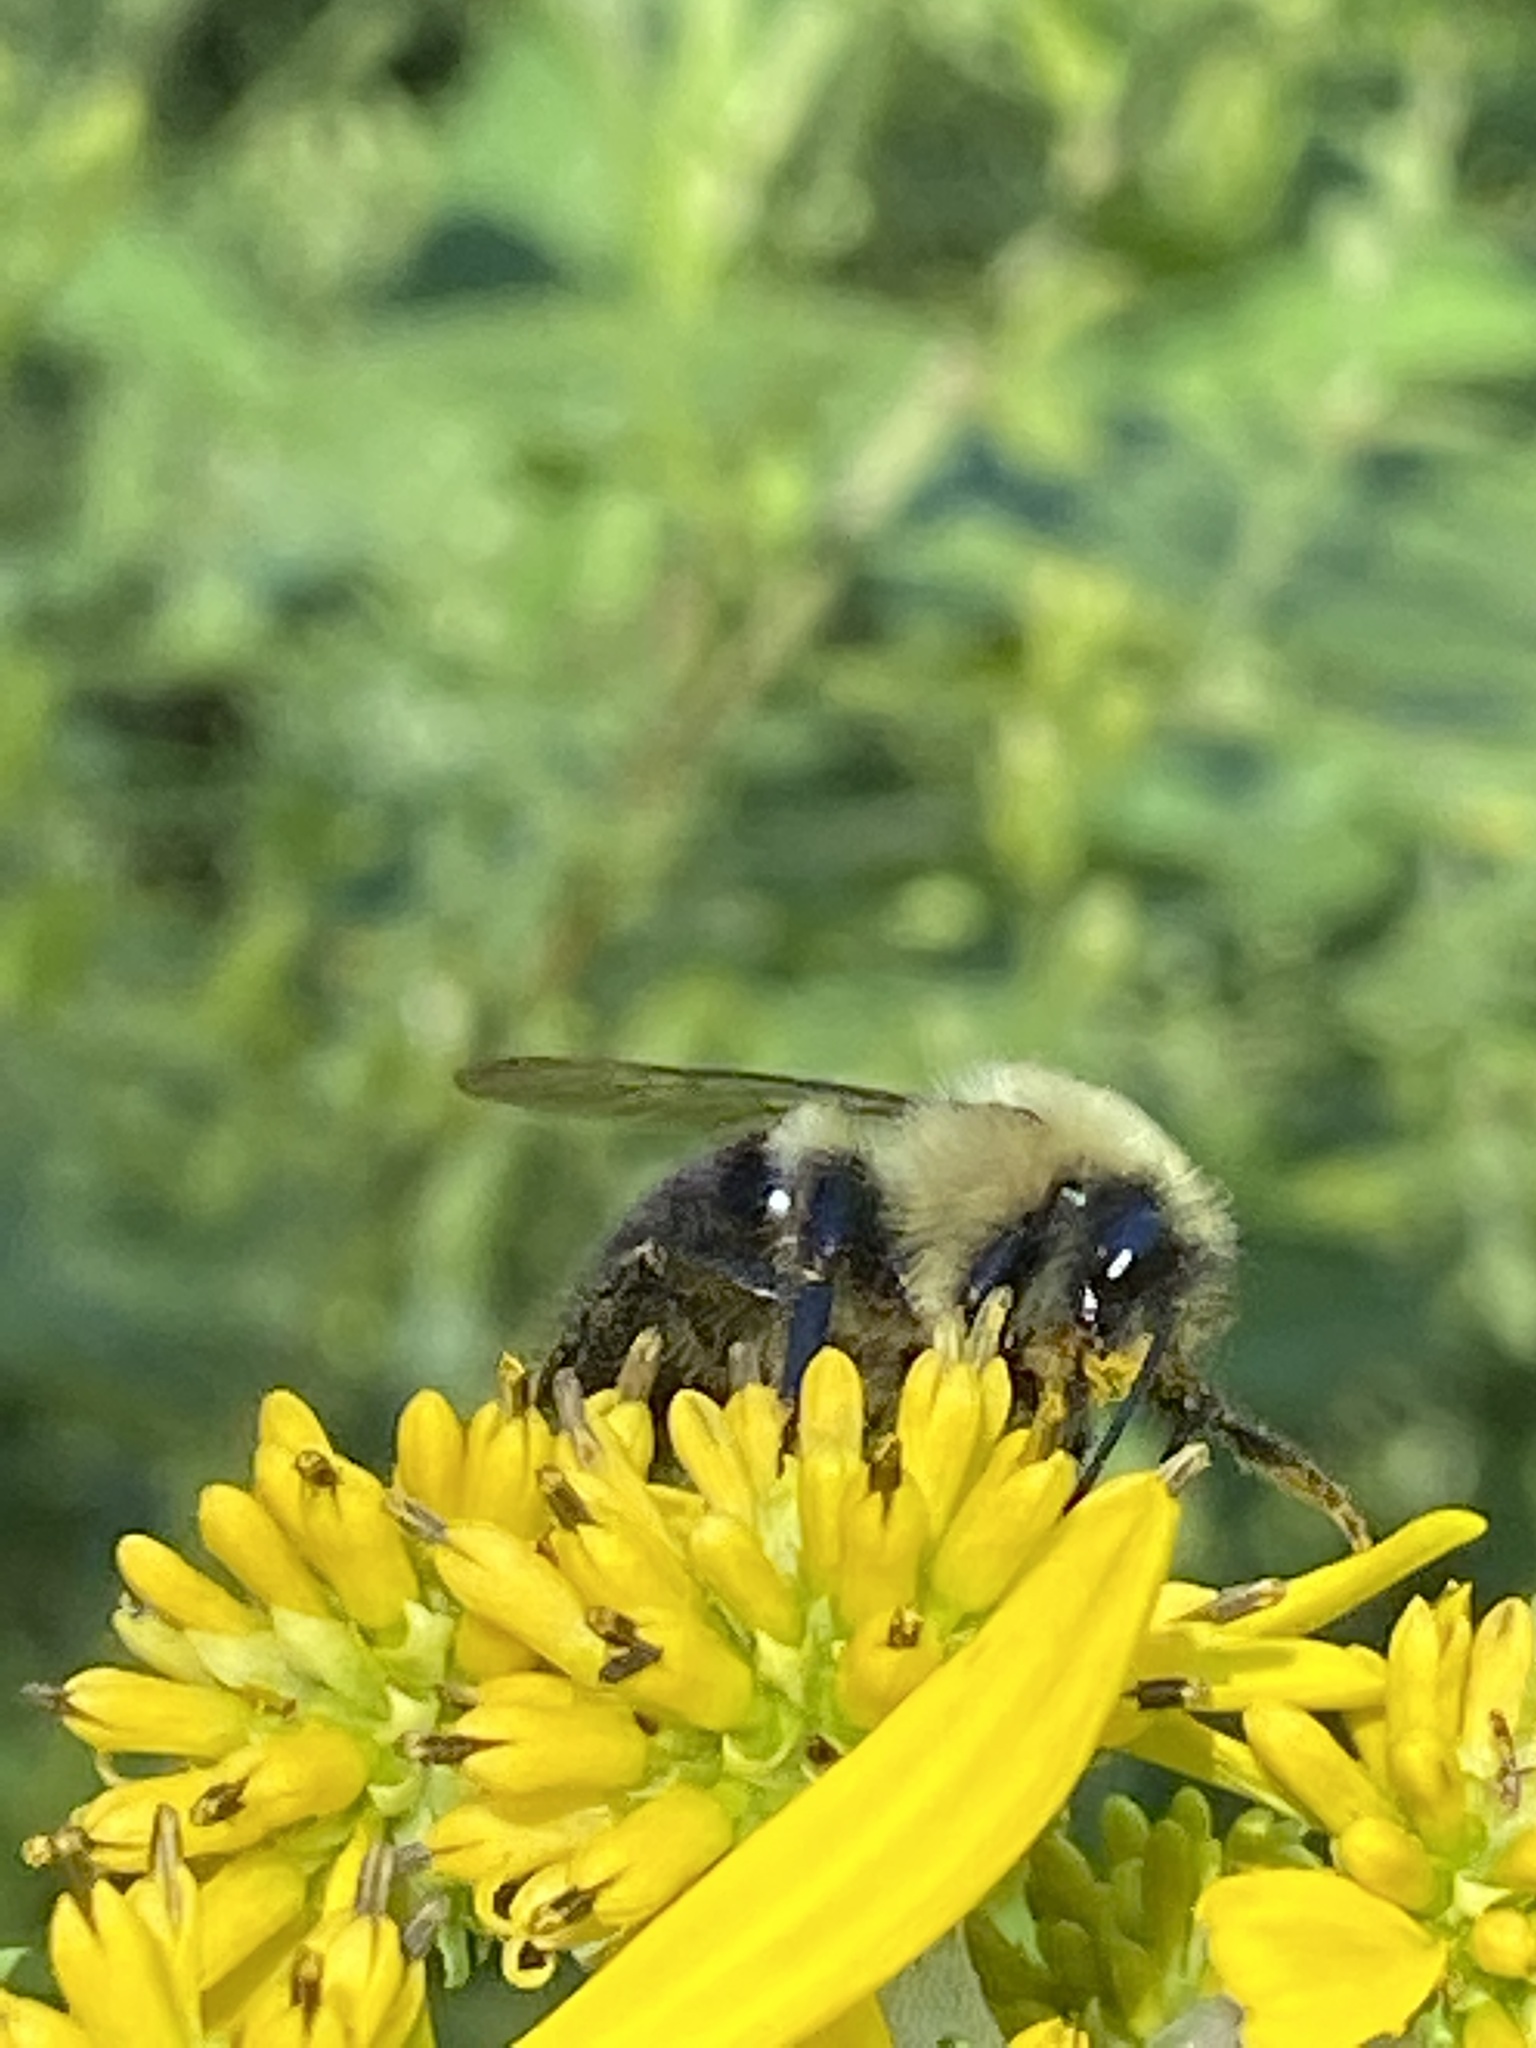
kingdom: Animalia
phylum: Arthropoda
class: Insecta
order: Hymenoptera
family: Apidae
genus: Bombus
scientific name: Bombus impatiens
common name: Common eastern bumble bee
